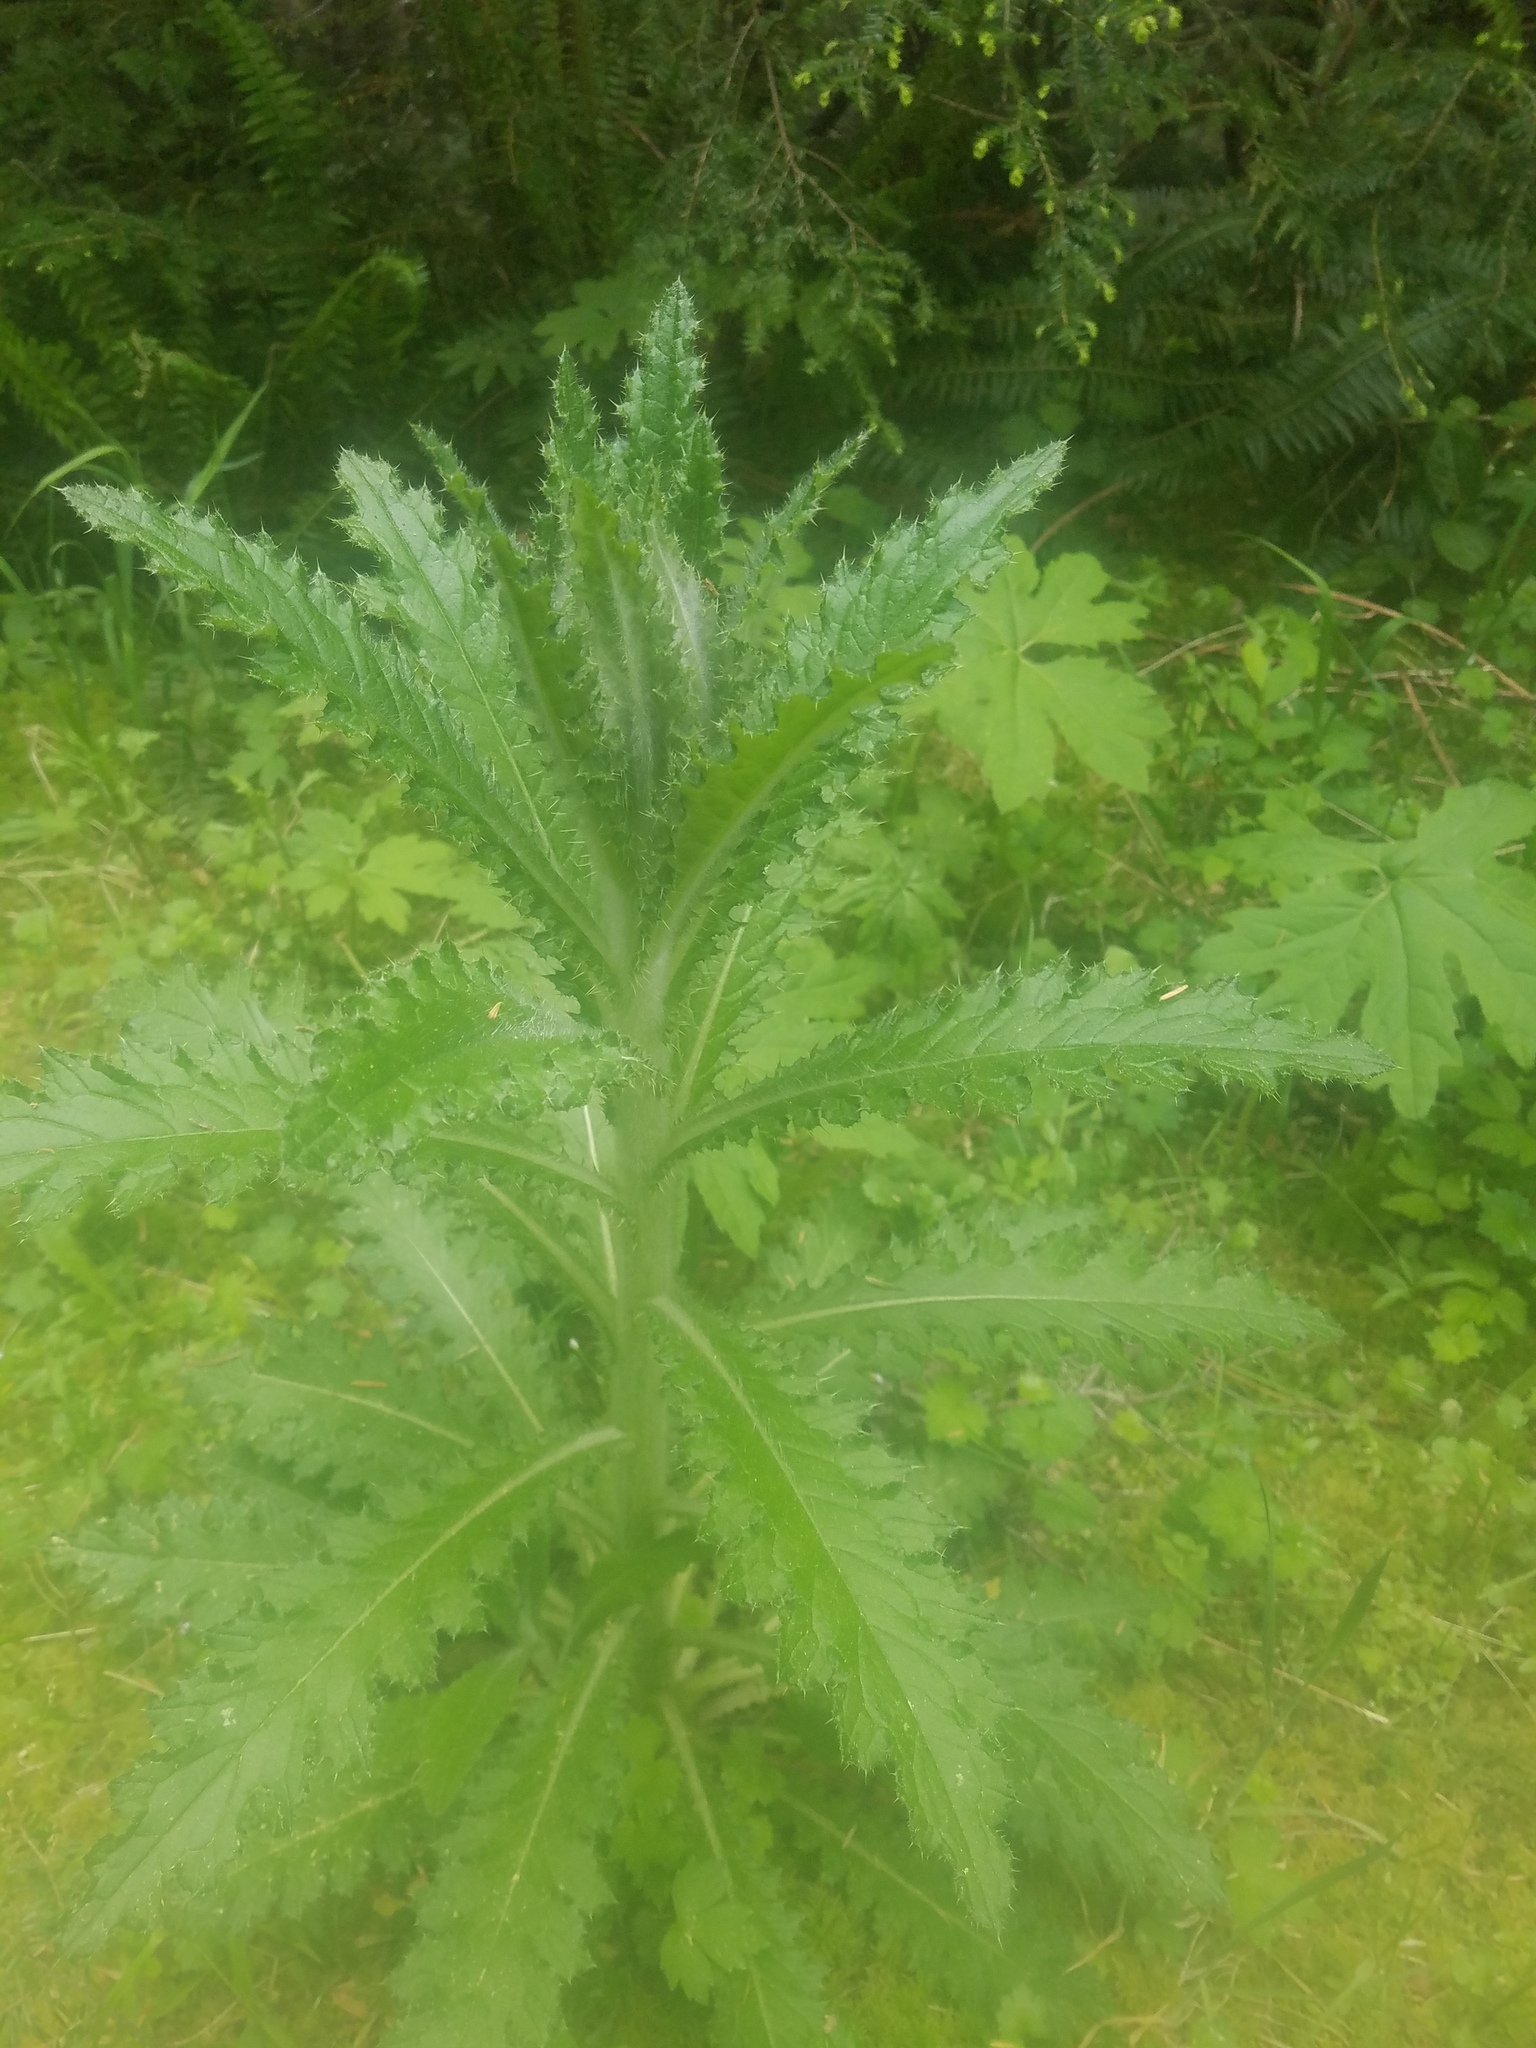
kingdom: Plantae
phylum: Tracheophyta
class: Magnoliopsida
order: Asterales
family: Asteraceae
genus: Cirsium
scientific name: Cirsium brevistylum
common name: Indian thistle
